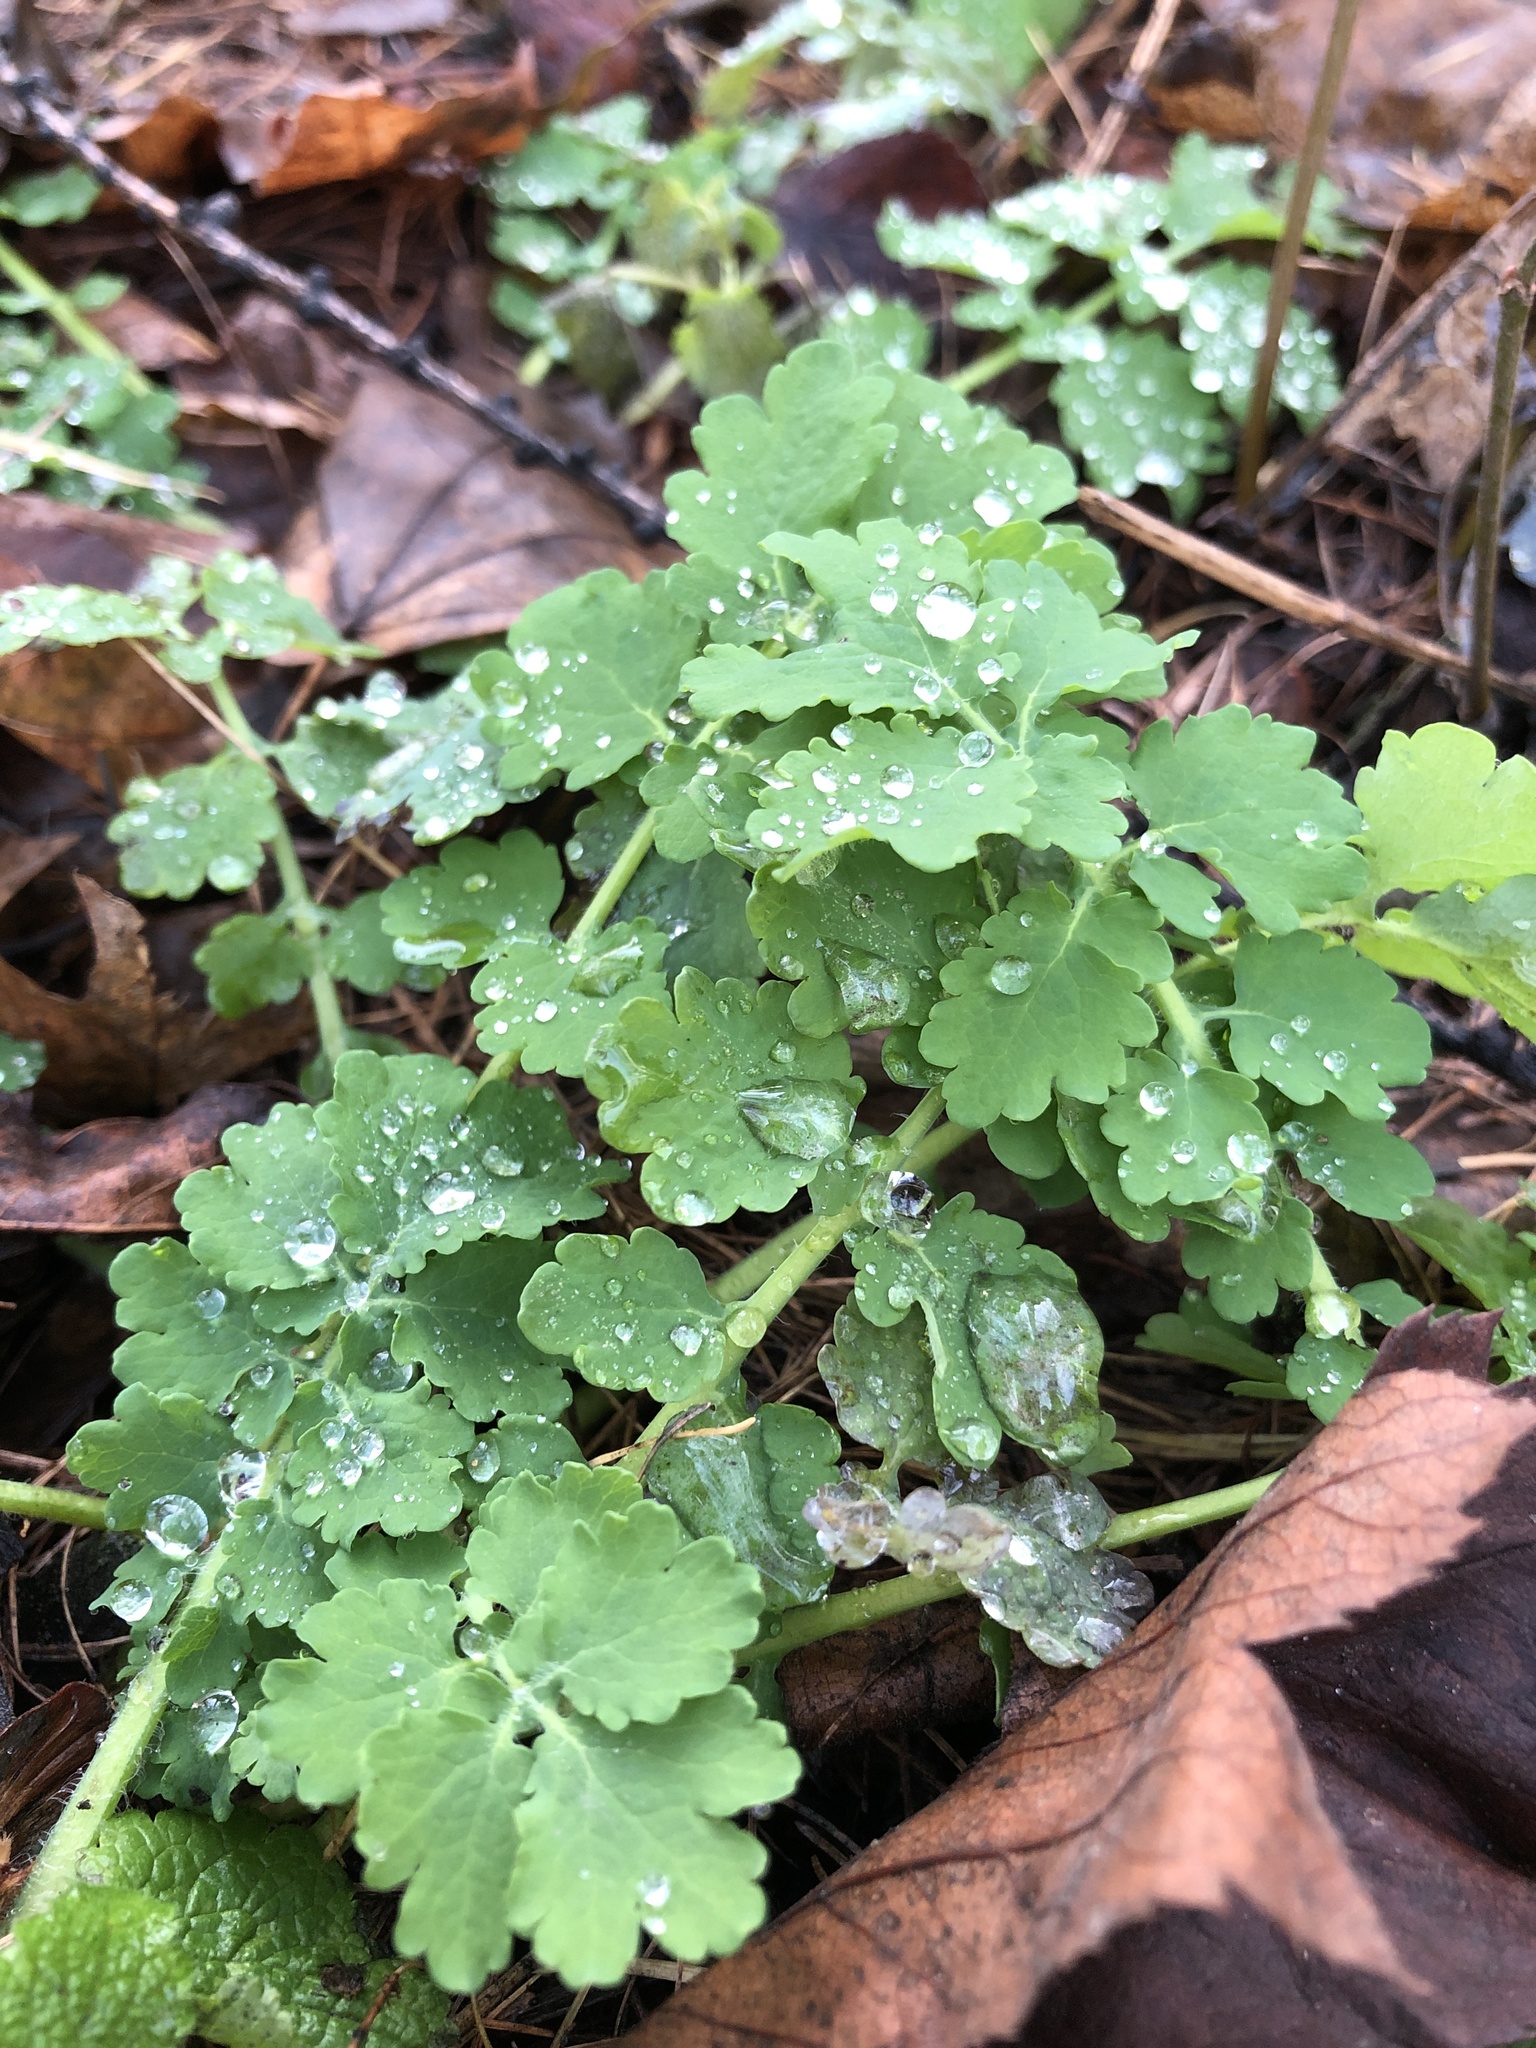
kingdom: Plantae
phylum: Tracheophyta
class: Magnoliopsida
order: Ranunculales
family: Papaveraceae
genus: Chelidonium
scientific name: Chelidonium majus
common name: Greater celandine
